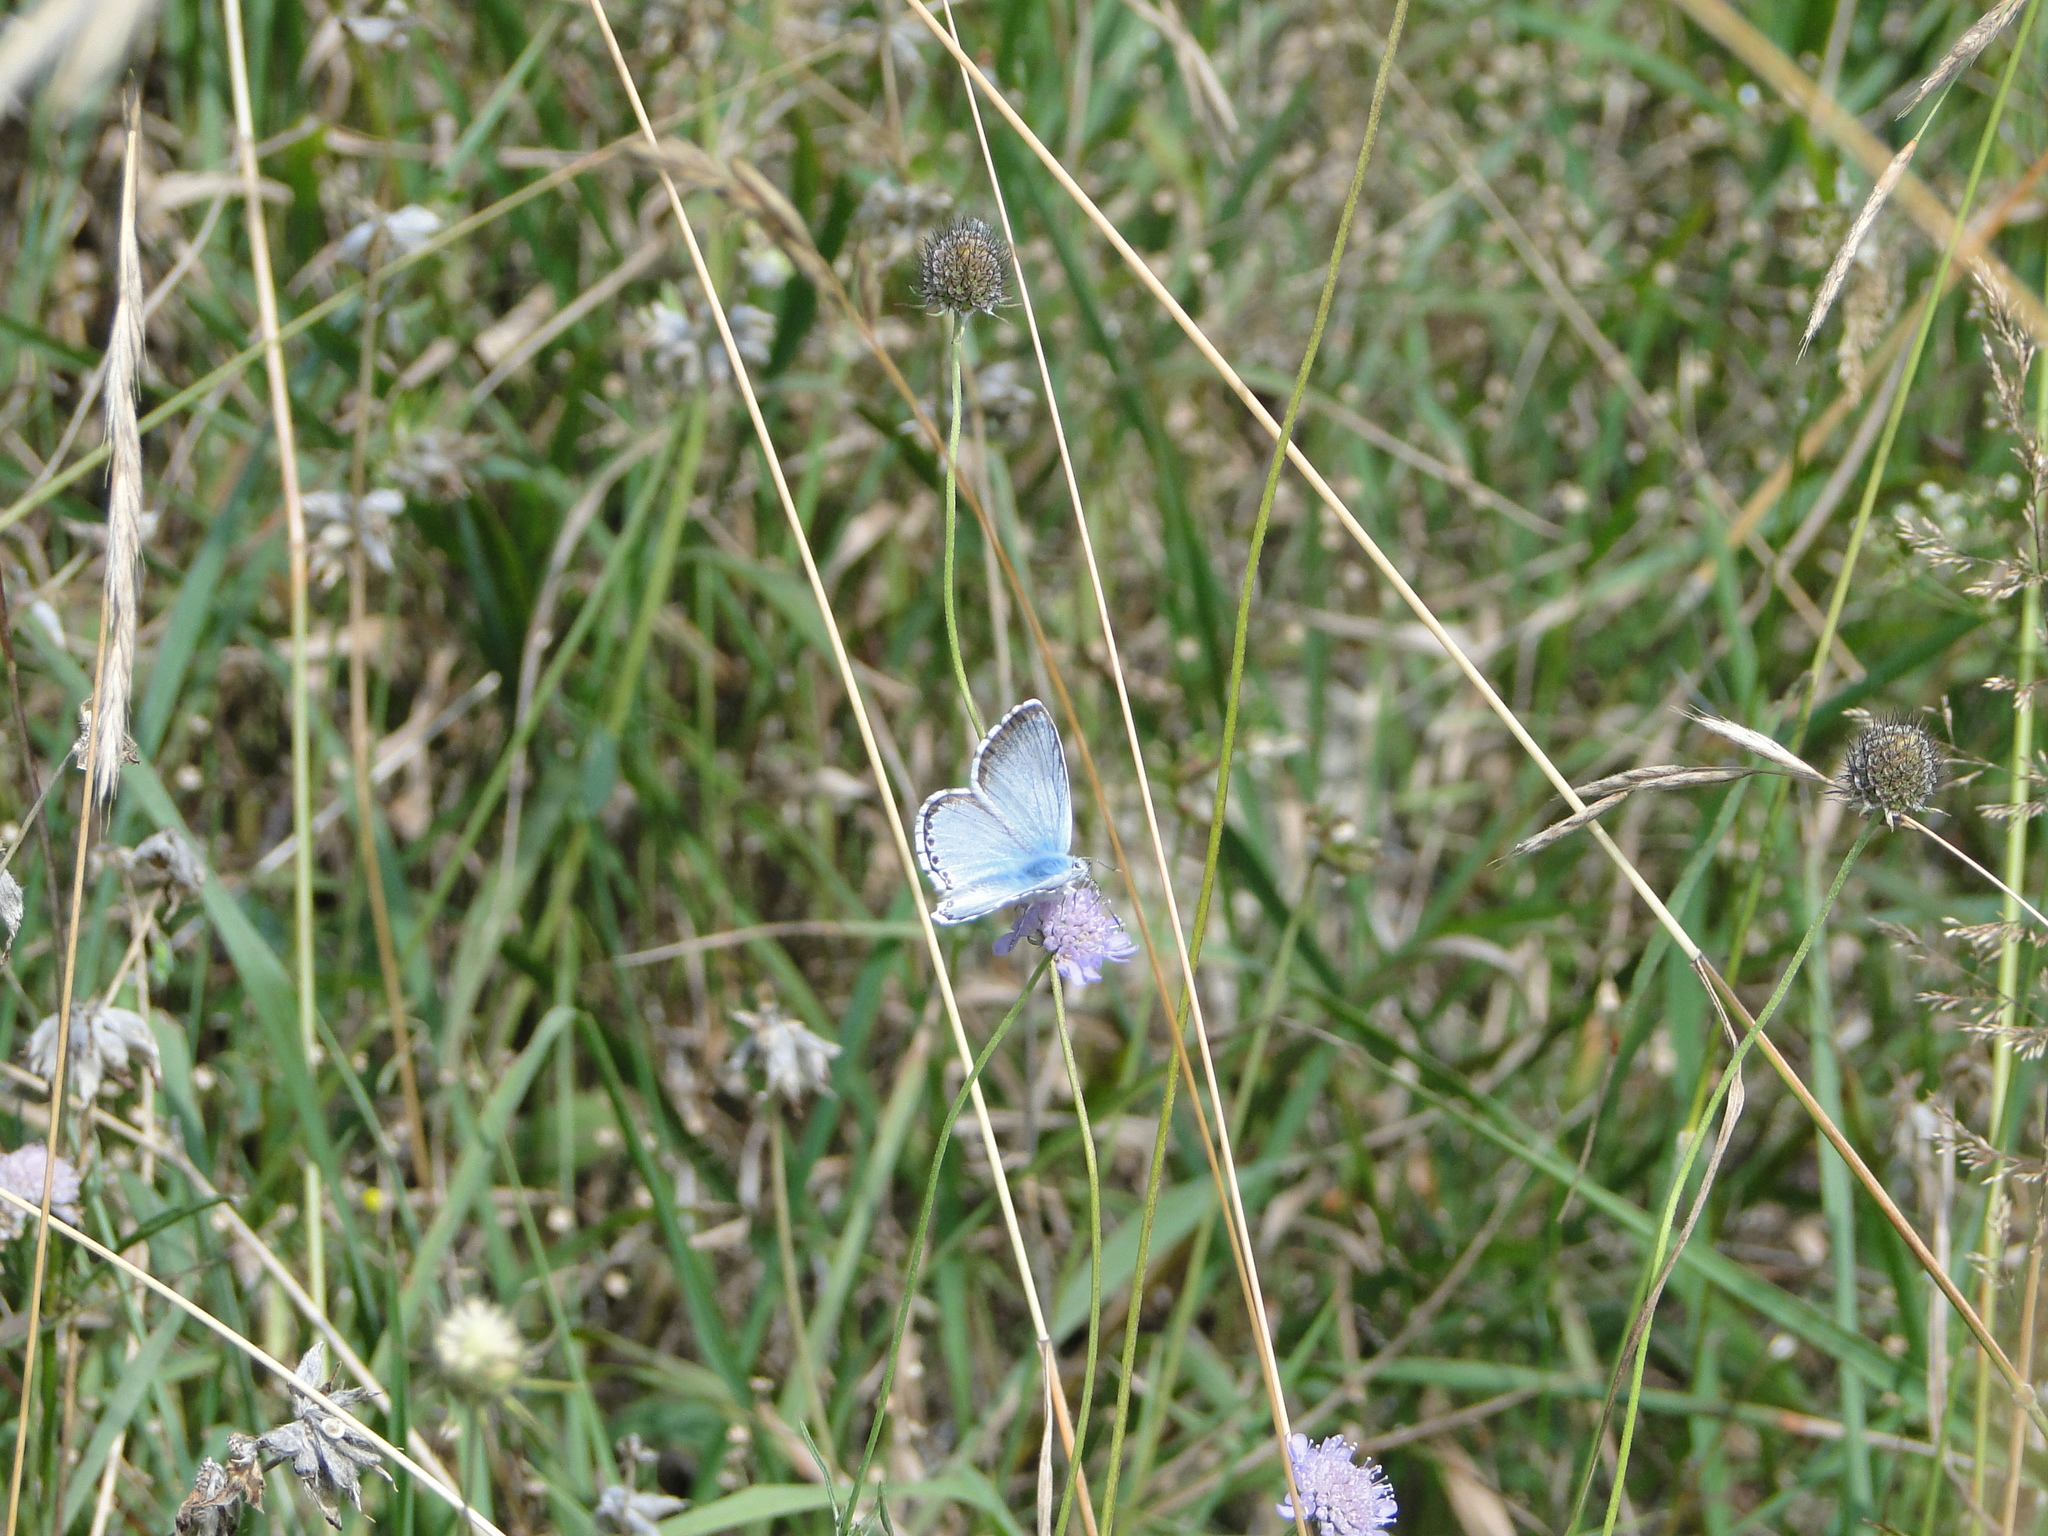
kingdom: Animalia
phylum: Arthropoda
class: Insecta
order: Lepidoptera
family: Lycaenidae
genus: Lysandra
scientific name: Lysandra coridon
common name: Chalkhill blue
